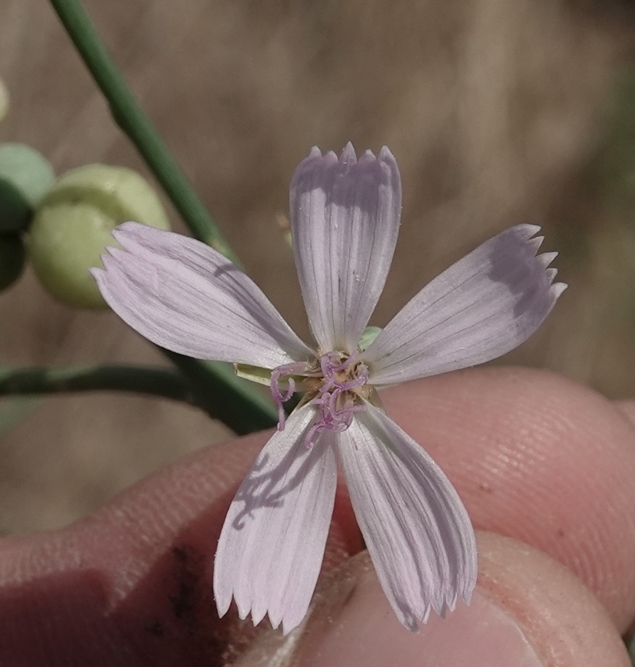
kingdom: Plantae
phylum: Tracheophyta
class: Magnoliopsida
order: Asterales
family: Asteraceae
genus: Lygodesmia
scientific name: Lygodesmia juncea
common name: Common skeletonweed
